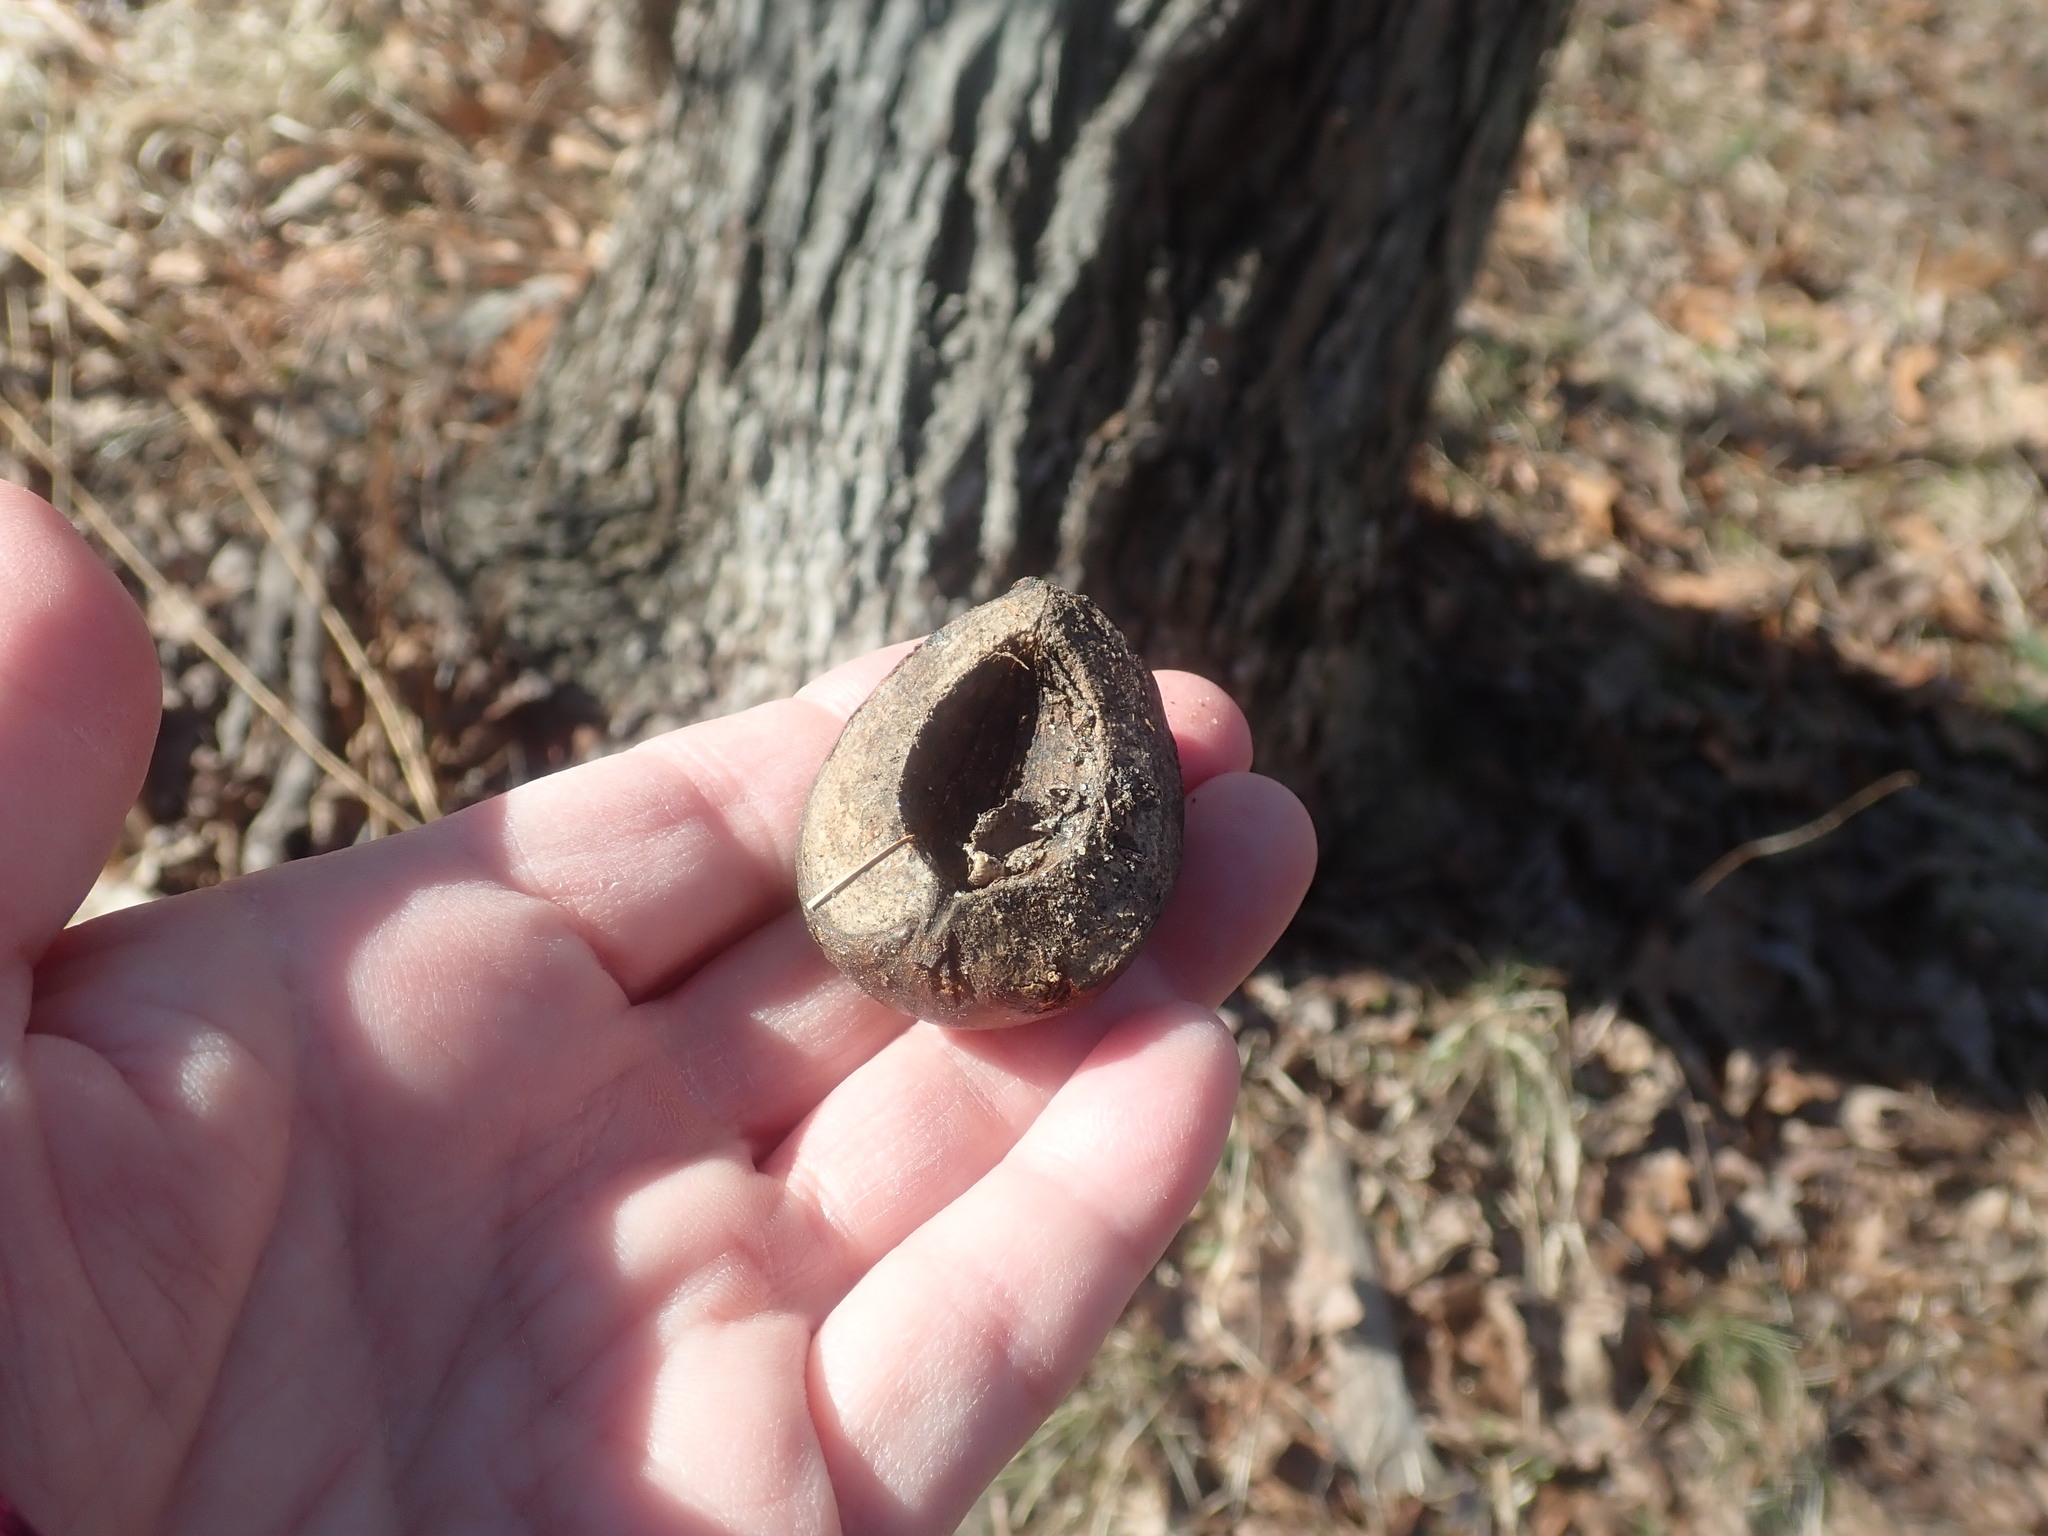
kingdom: Plantae
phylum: Tracheophyta
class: Magnoliopsida
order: Fagales
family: Juglandaceae
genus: Carya
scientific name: Carya ovata
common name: Shagbark hickory
